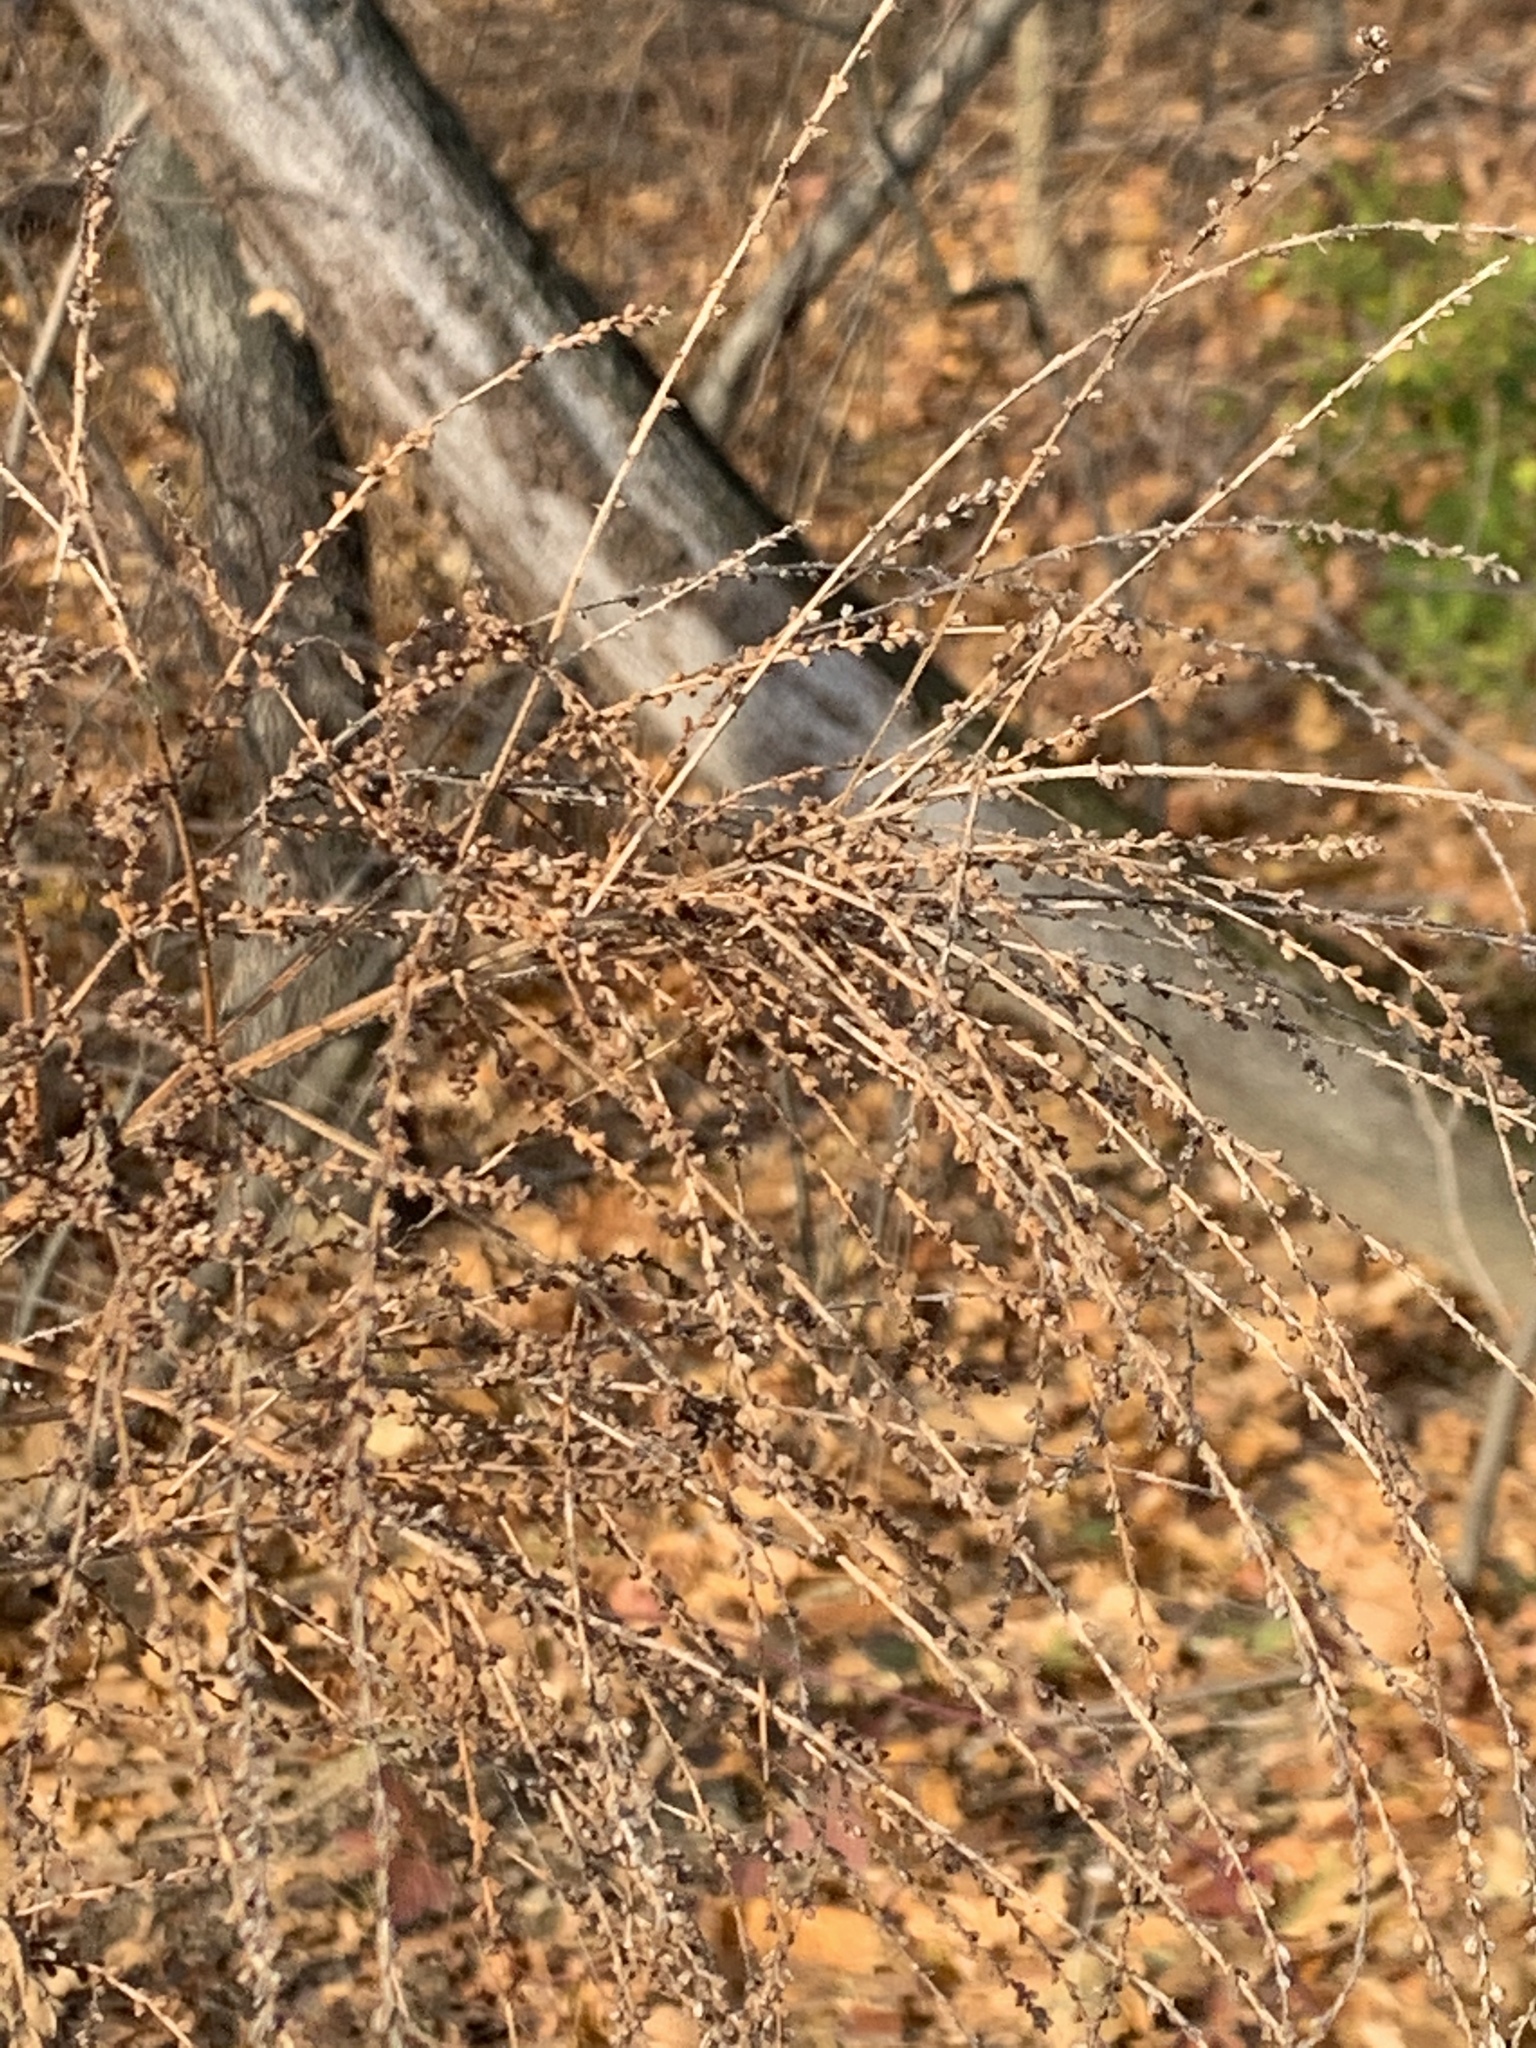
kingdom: Plantae
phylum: Tracheophyta
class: Magnoliopsida
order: Lamiales
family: Verbenaceae
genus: Verbena
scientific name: Verbena urticifolia
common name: Nettle-leaved vervain
